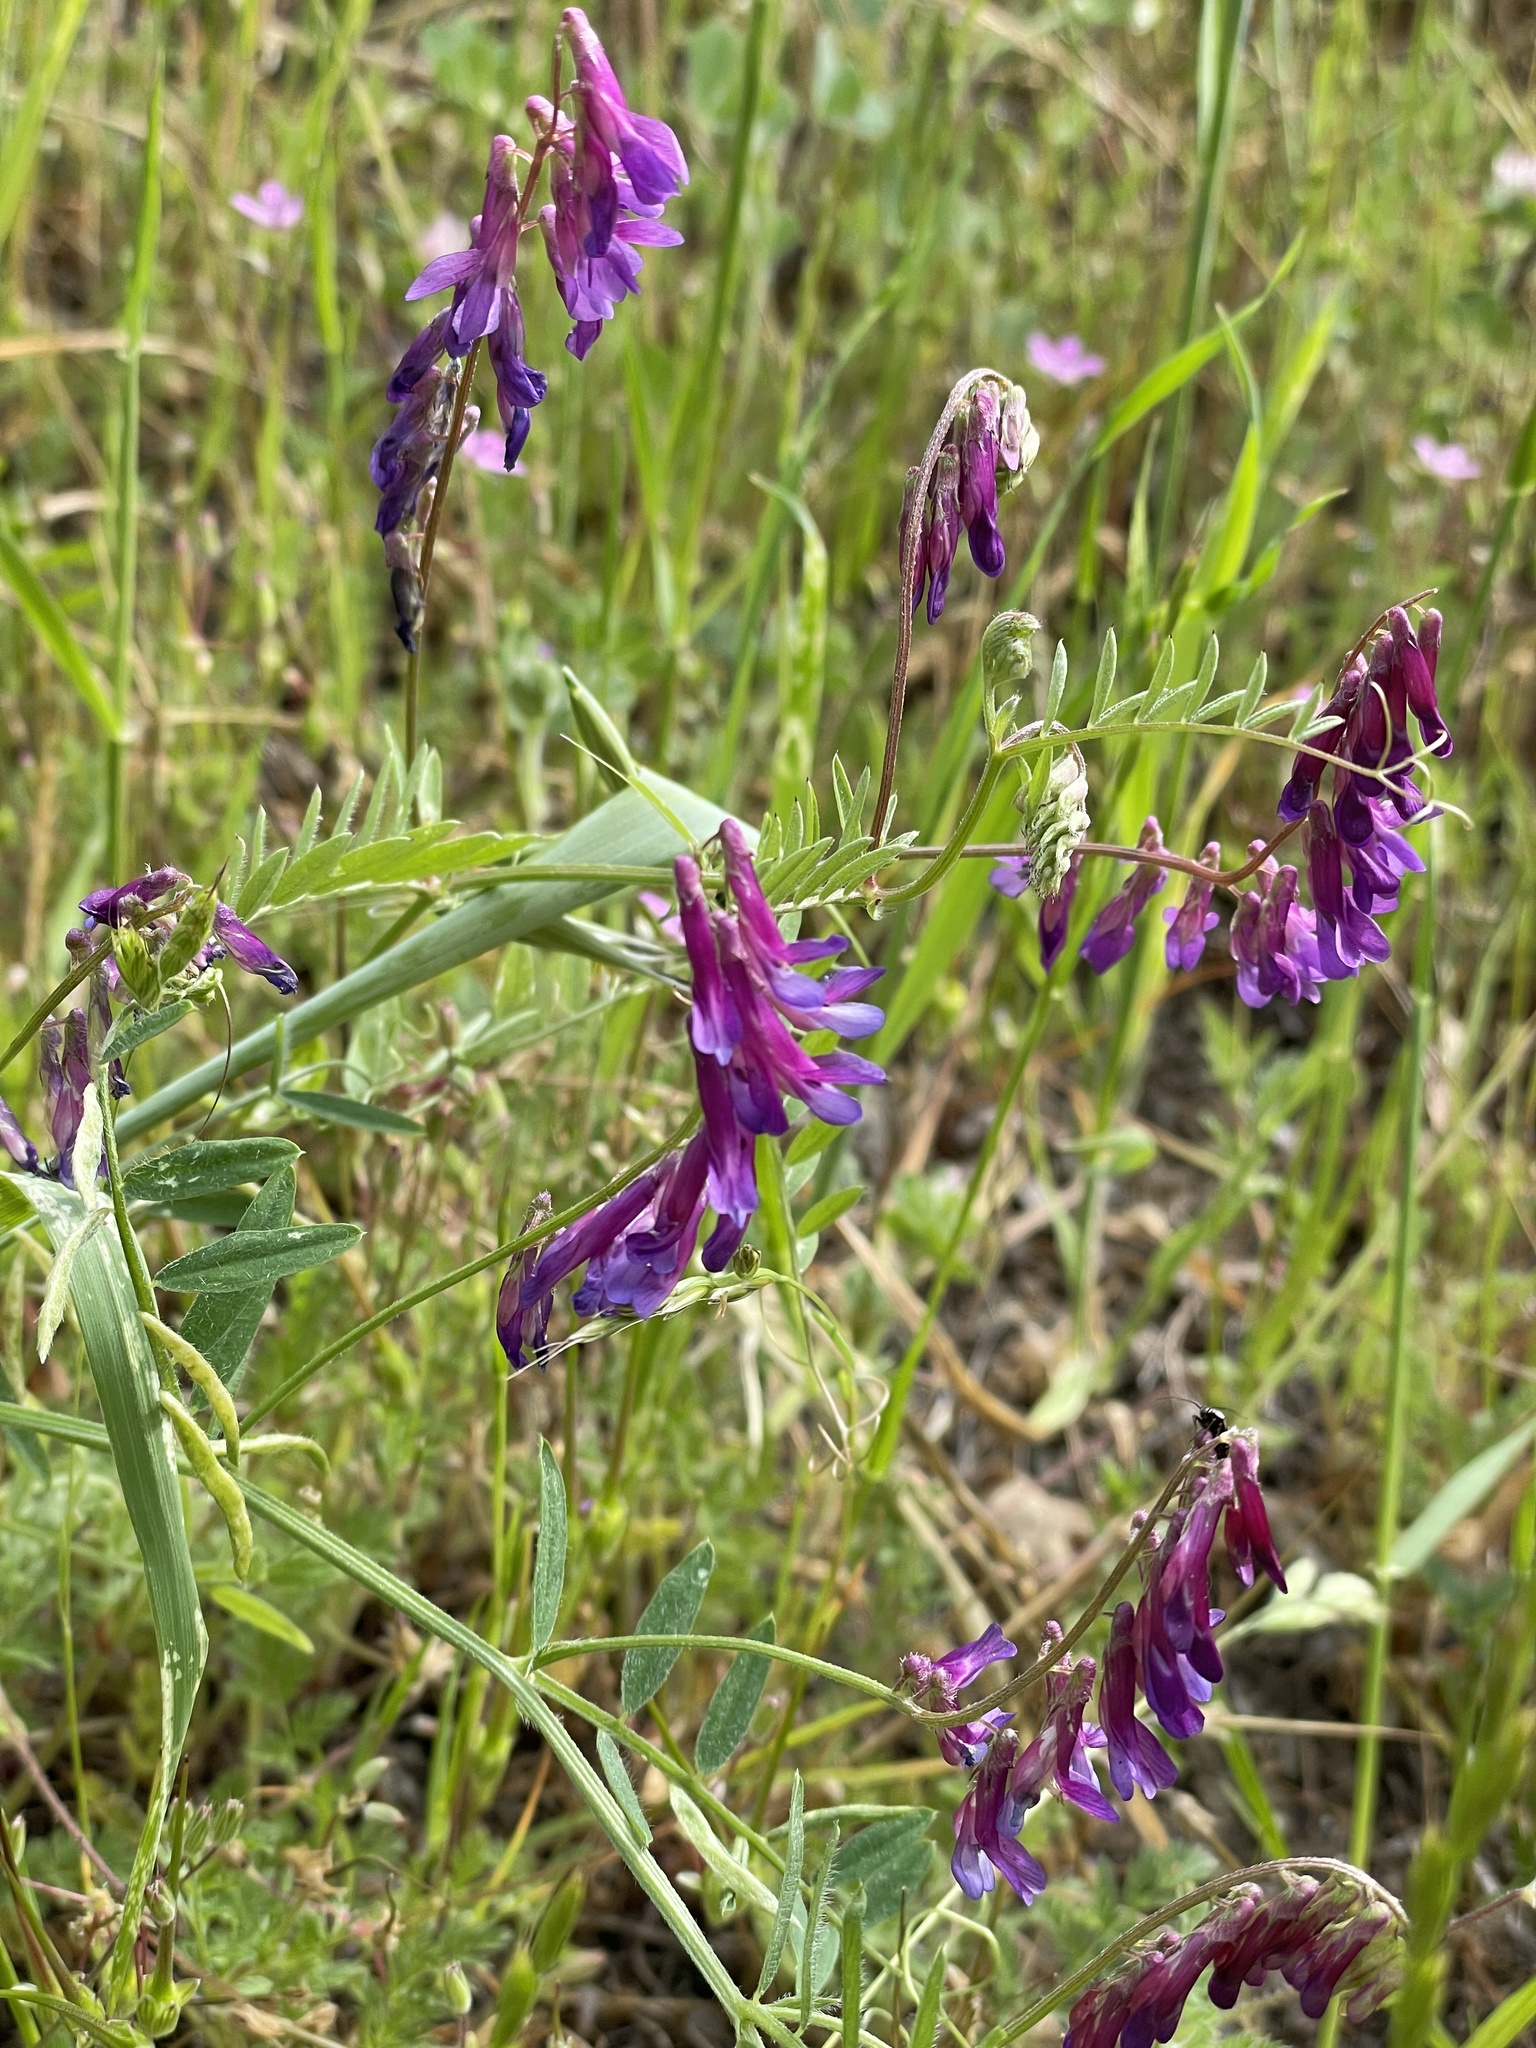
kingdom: Plantae
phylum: Tracheophyta
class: Magnoliopsida
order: Fabales
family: Fabaceae
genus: Vicia
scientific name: Vicia villosa
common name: Fodder vetch
